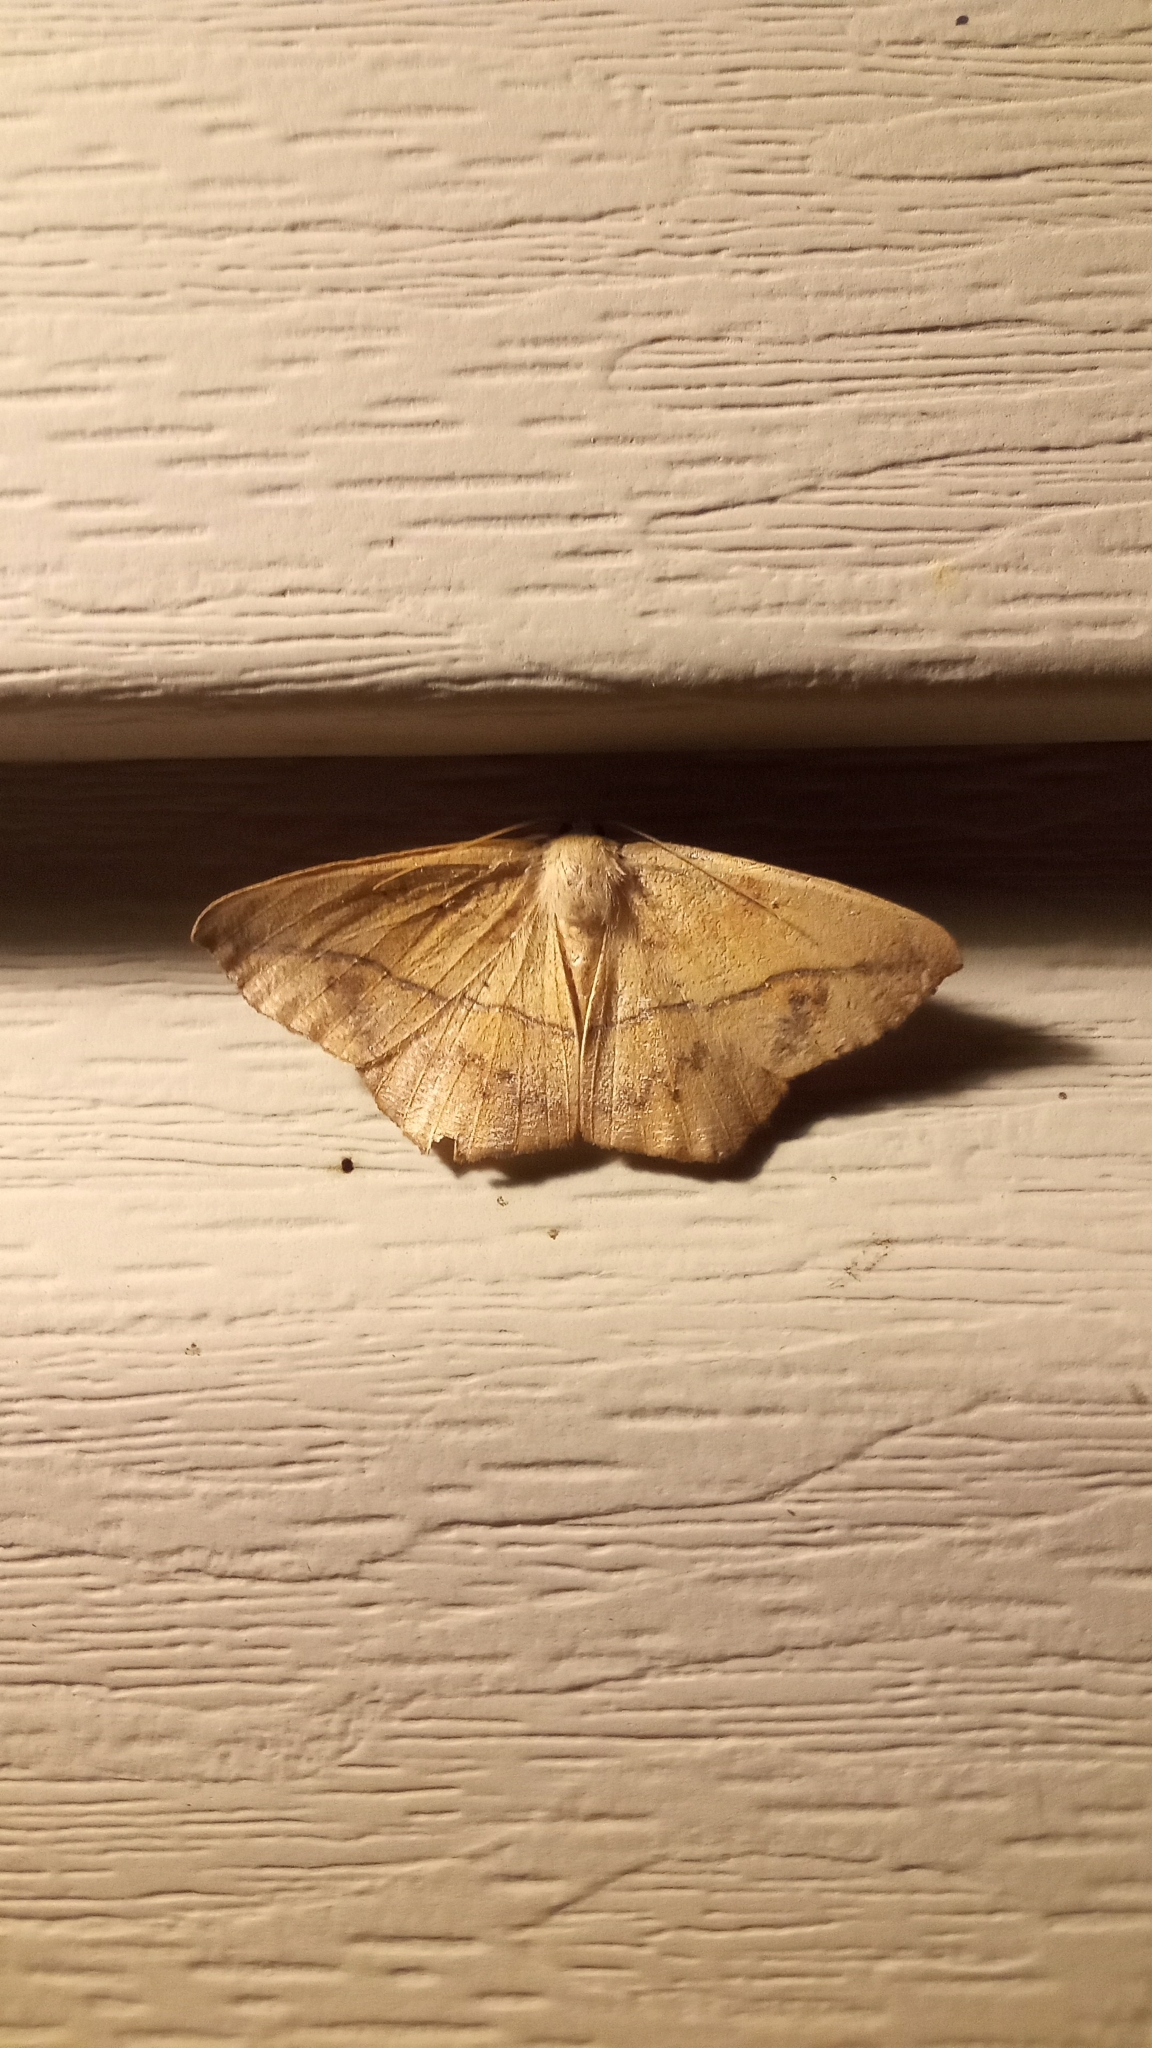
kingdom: Animalia
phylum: Arthropoda
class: Insecta
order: Lepidoptera
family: Geometridae
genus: Prochoerodes
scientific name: Prochoerodes lineola
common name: Large maple spanworm
